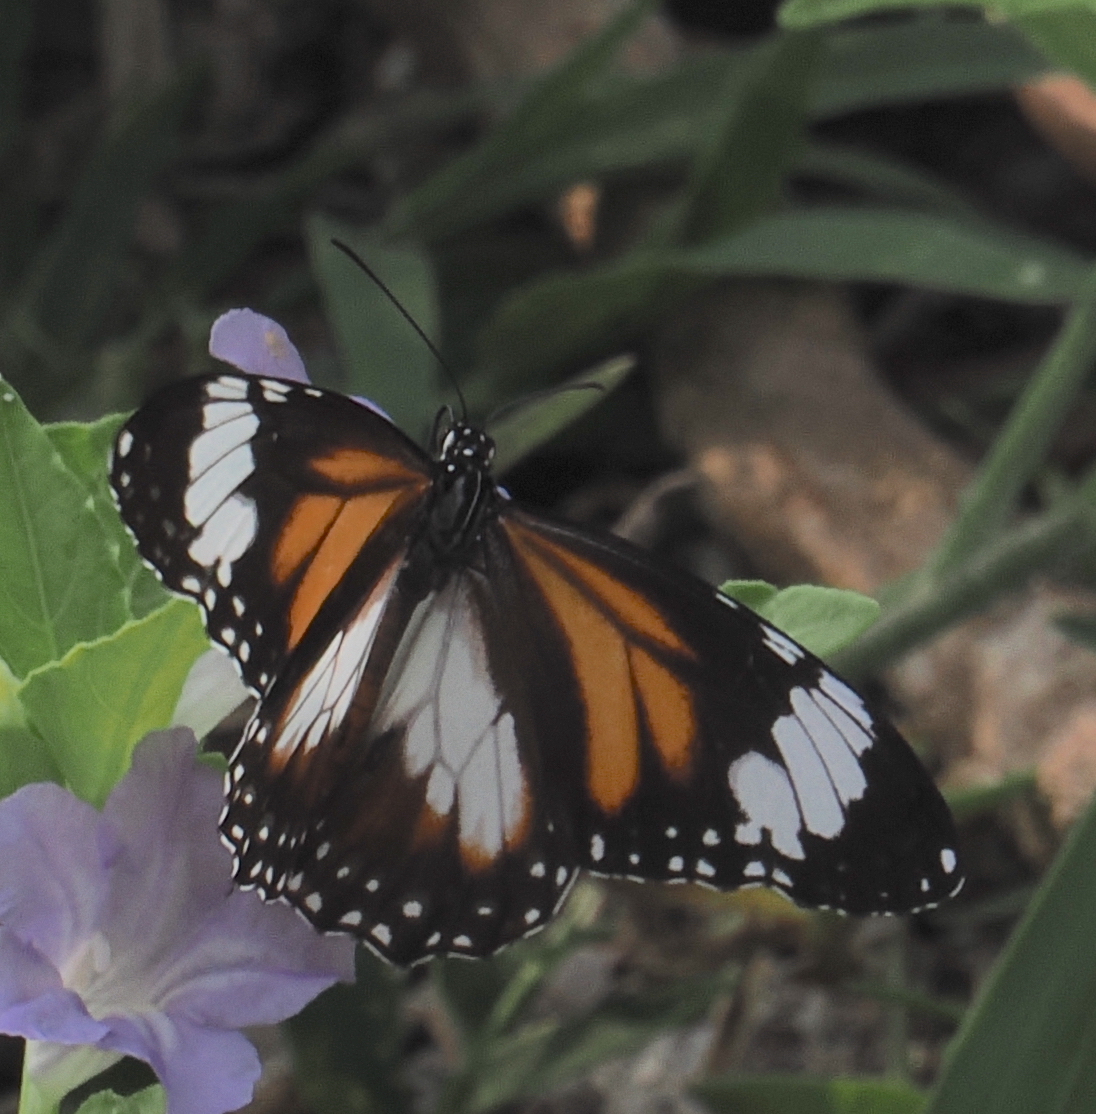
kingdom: Animalia
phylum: Arthropoda
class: Insecta
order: Lepidoptera
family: Nymphalidae
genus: Danaus
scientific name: Danaus affinis
